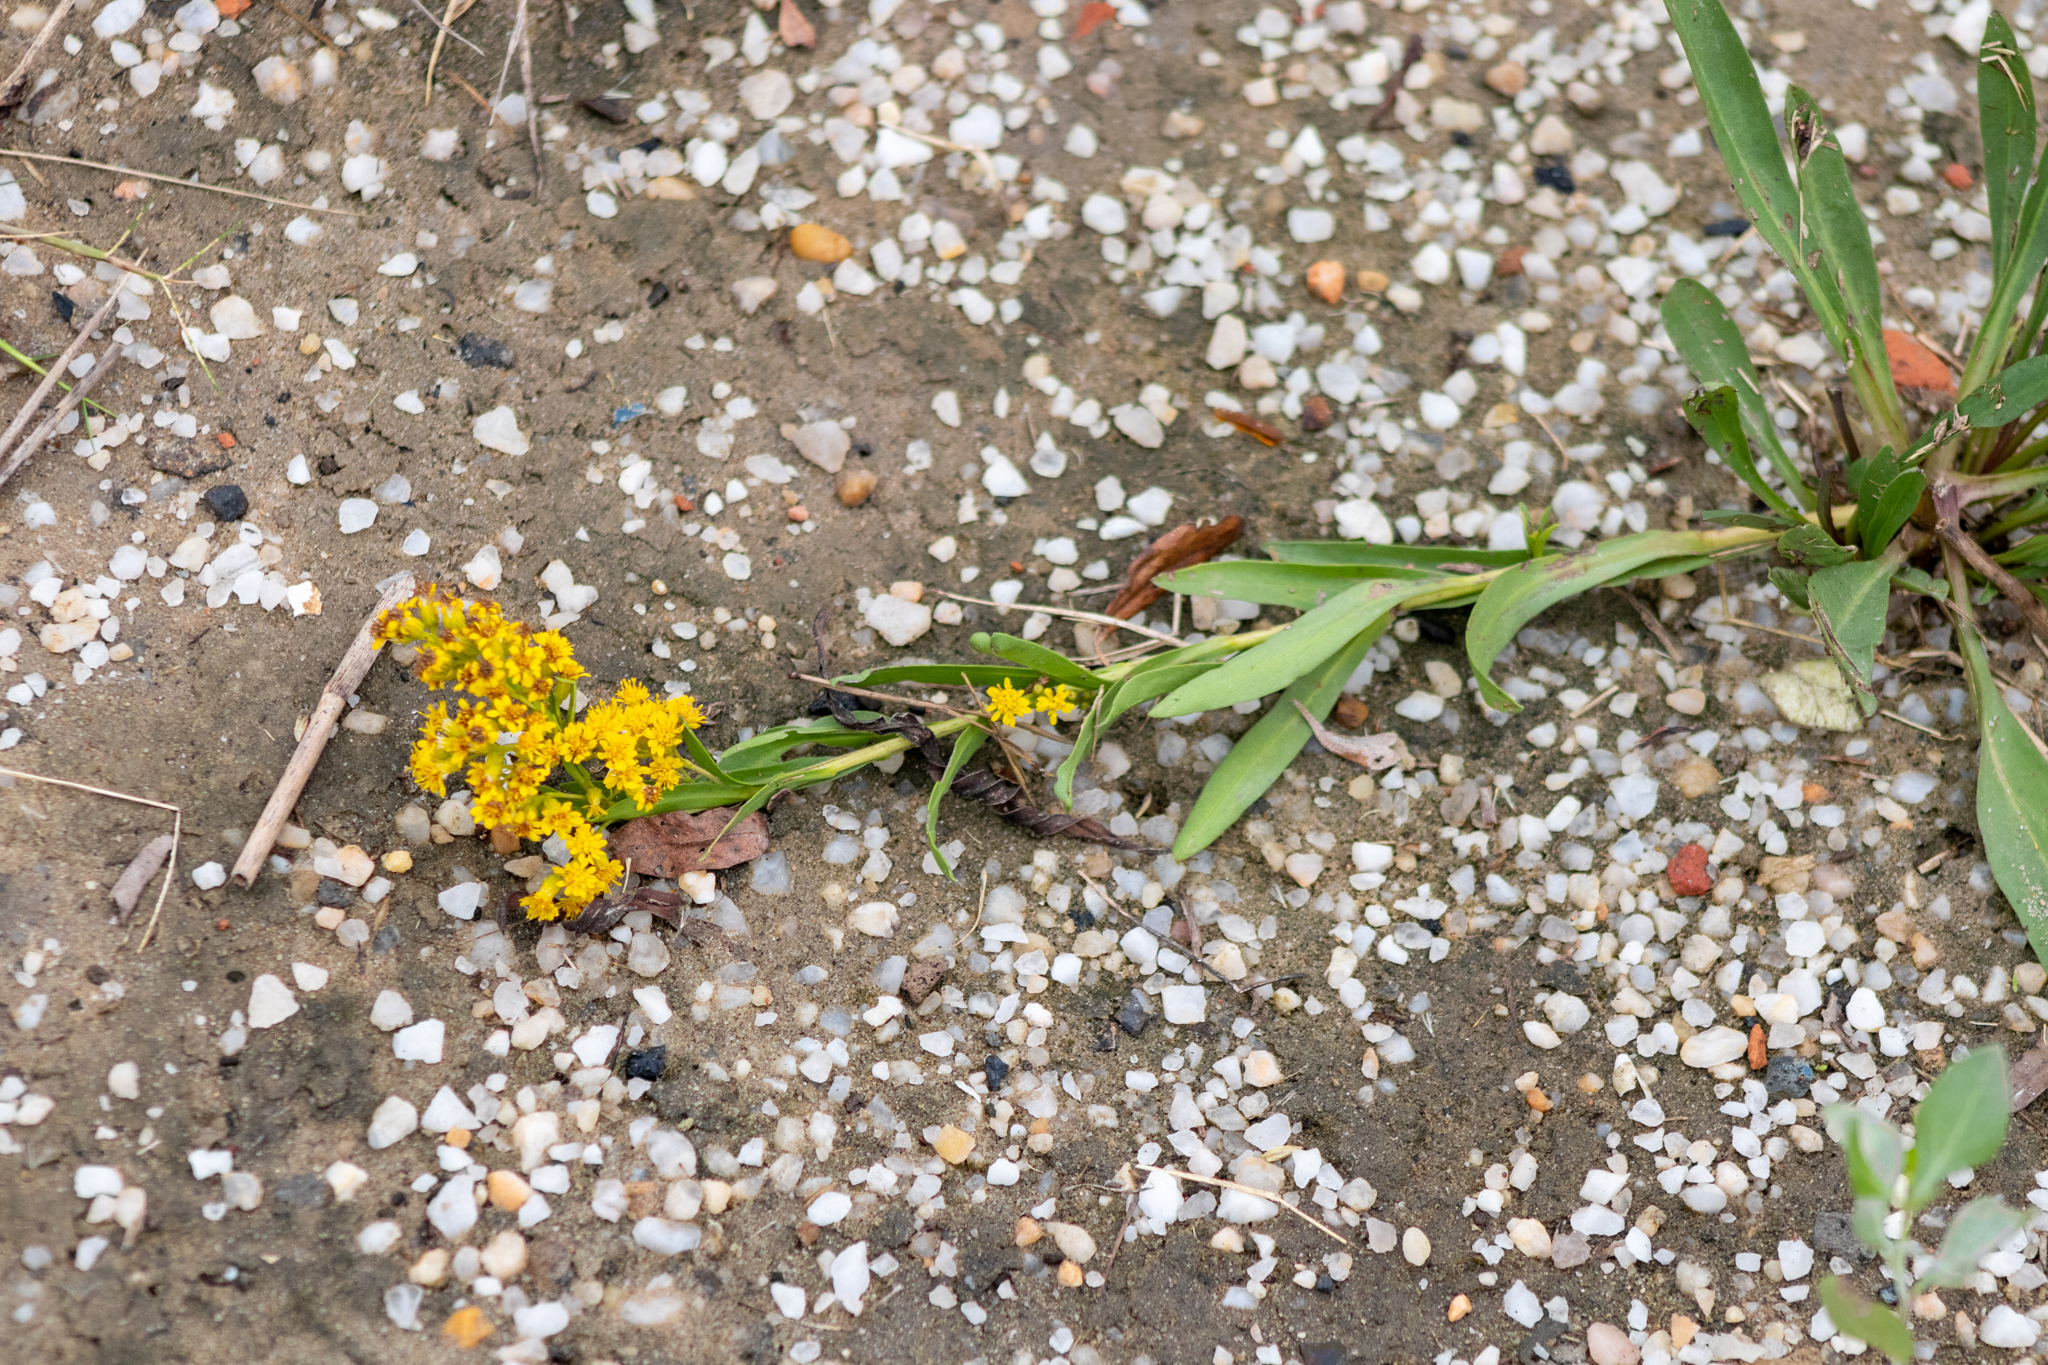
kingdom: Plantae
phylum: Tracheophyta
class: Magnoliopsida
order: Asterales
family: Asteraceae
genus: Solidago
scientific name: Solidago sempervirens
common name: Salt-marsh goldenrod
